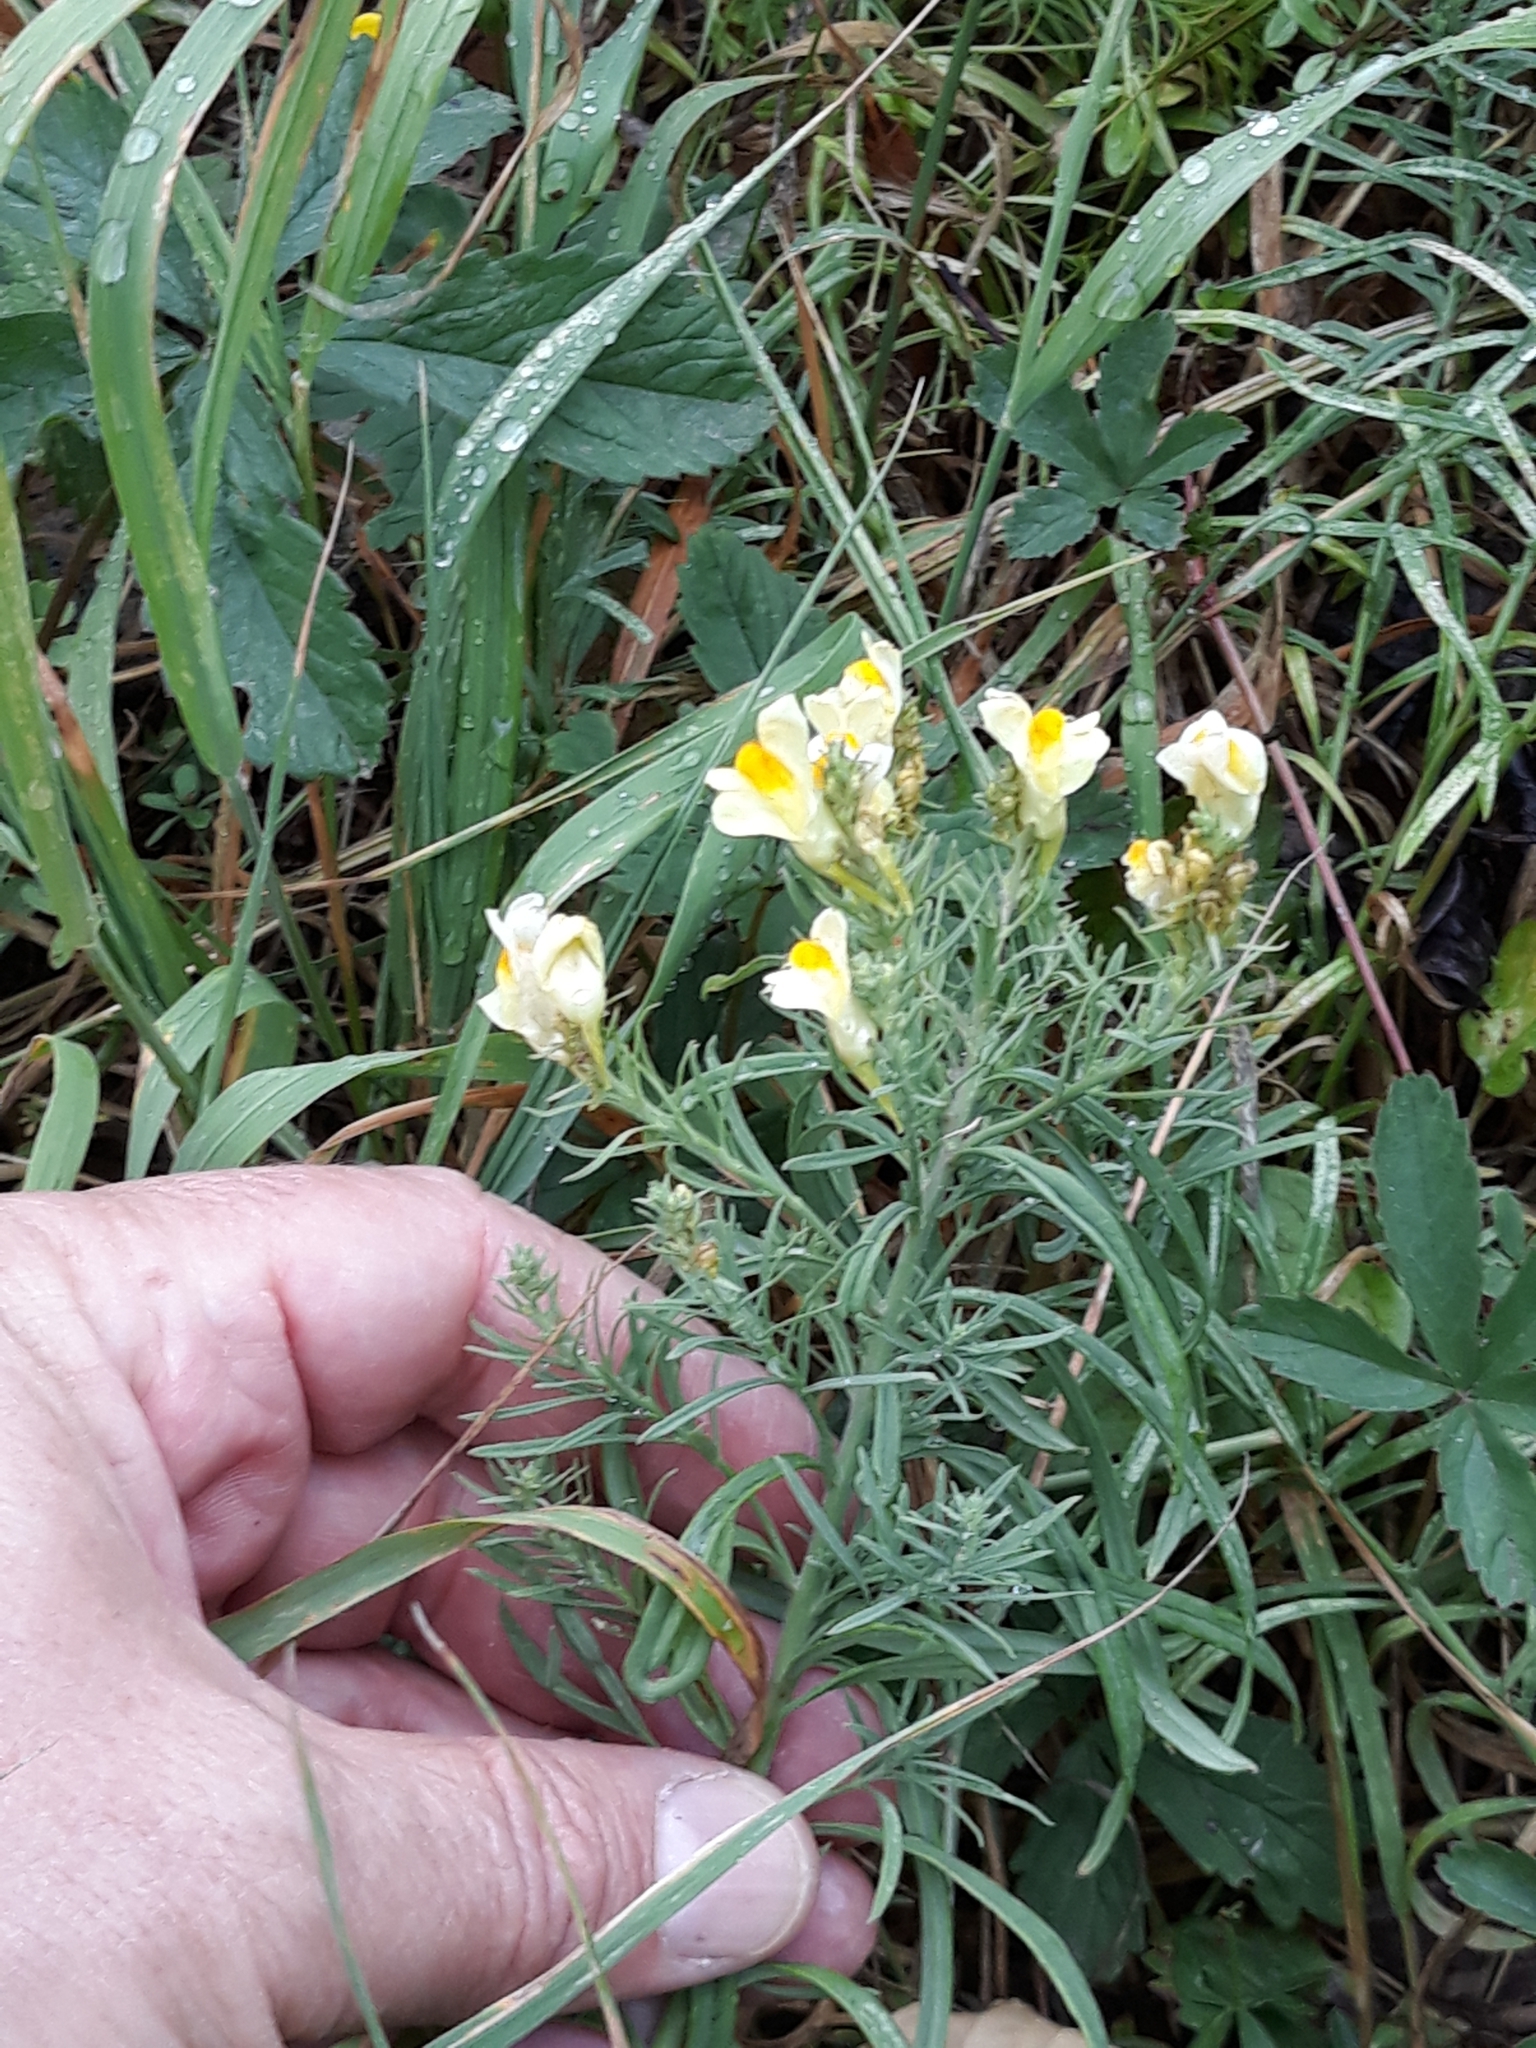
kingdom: Plantae
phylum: Tracheophyta
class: Magnoliopsida
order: Lamiales
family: Plantaginaceae
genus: Linaria
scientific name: Linaria vulgaris
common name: Butter and eggs
